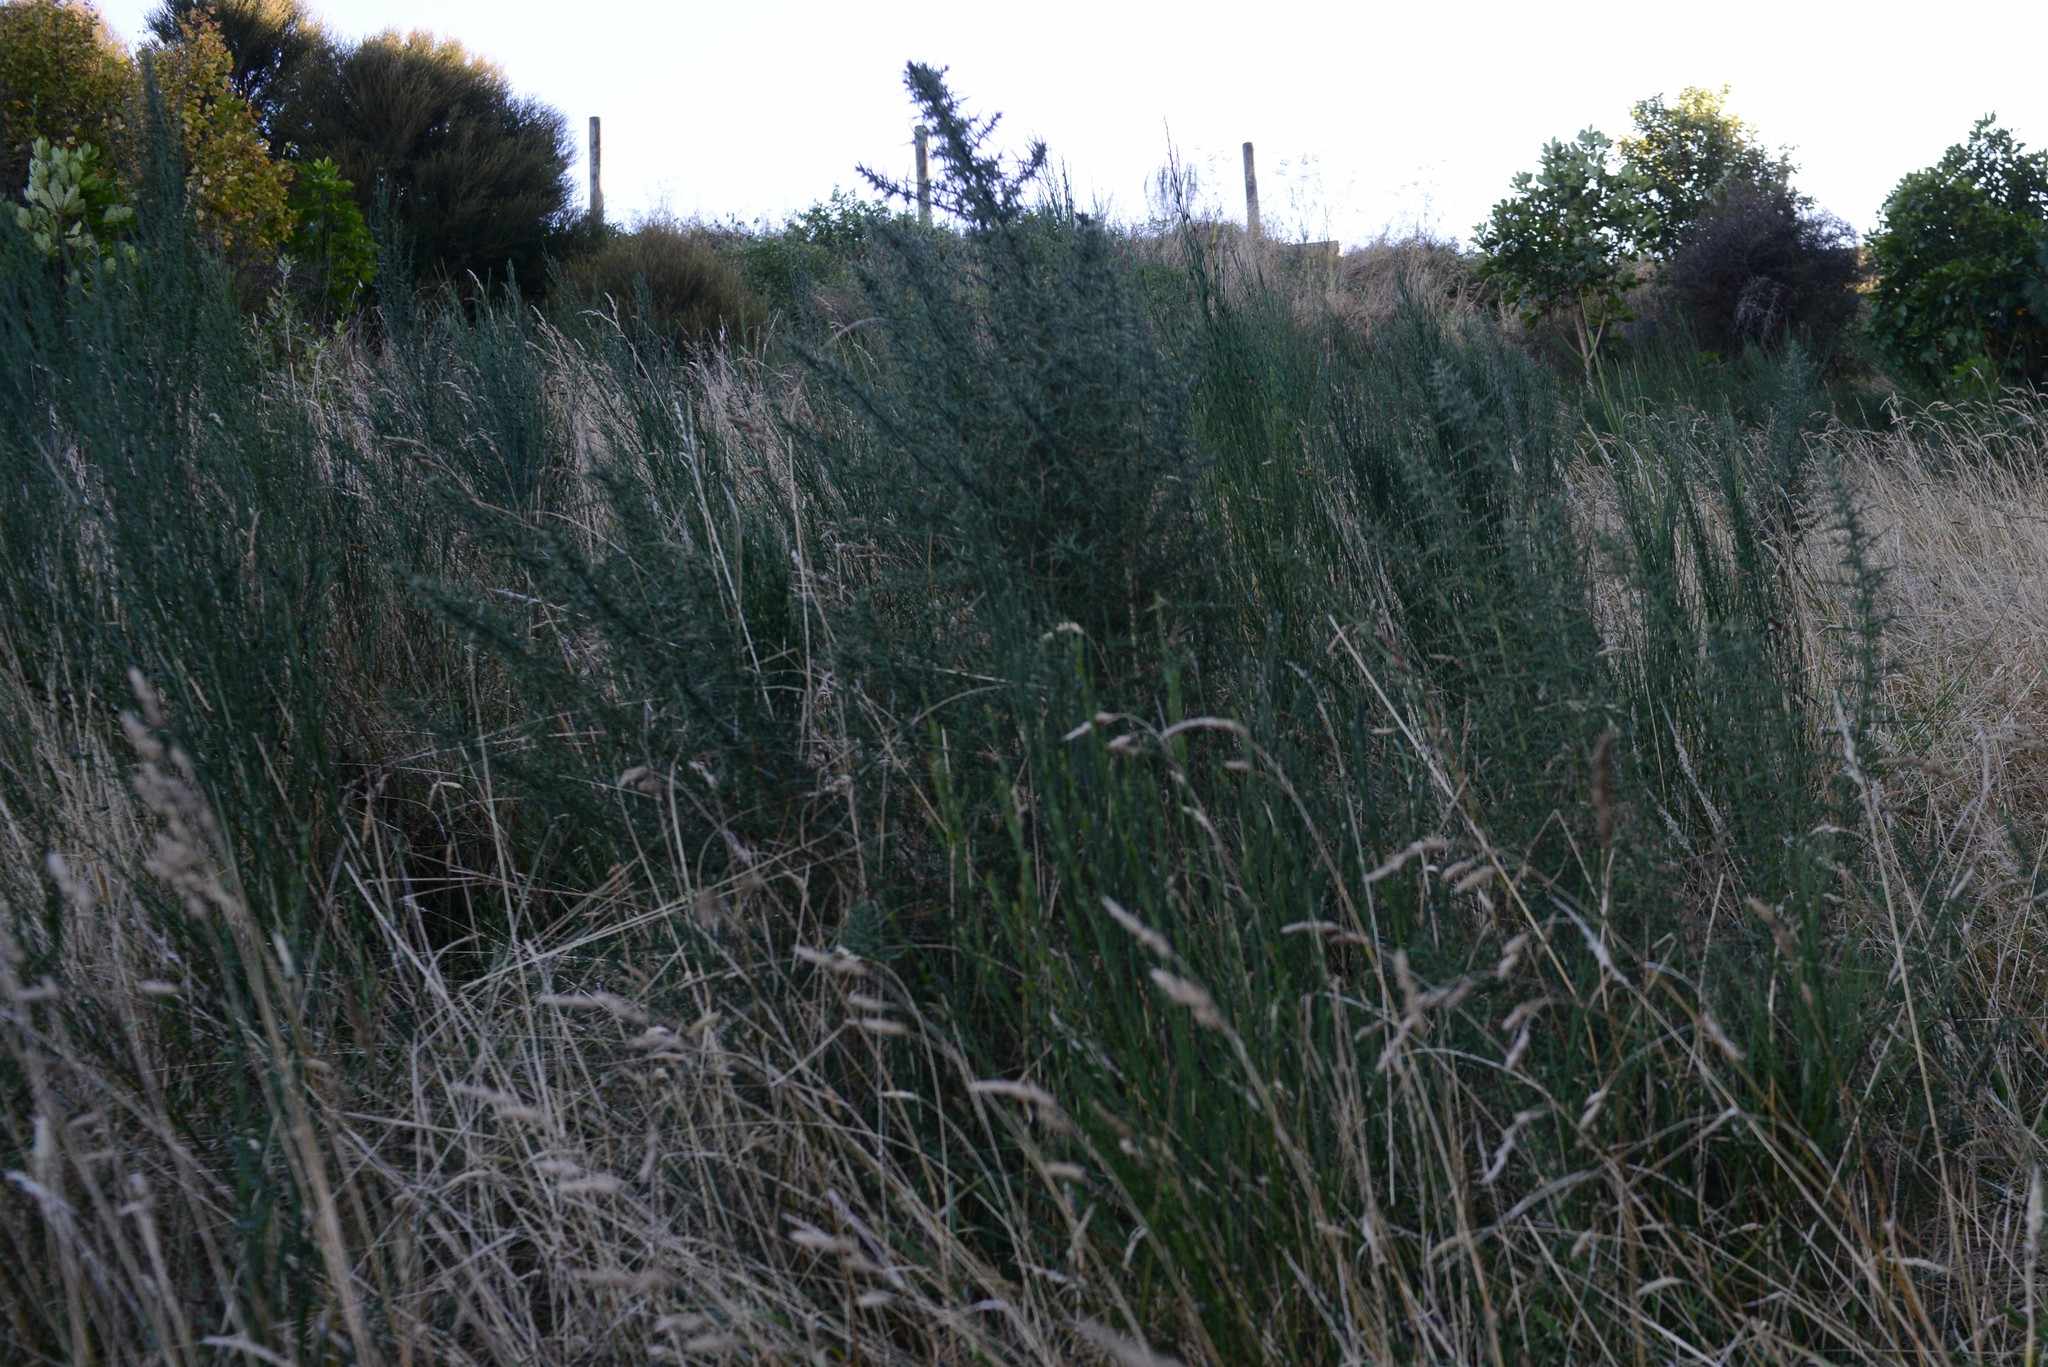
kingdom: Plantae
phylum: Tracheophyta
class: Magnoliopsida
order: Fabales
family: Fabaceae
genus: Ulex
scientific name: Ulex europaeus
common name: Common gorse
